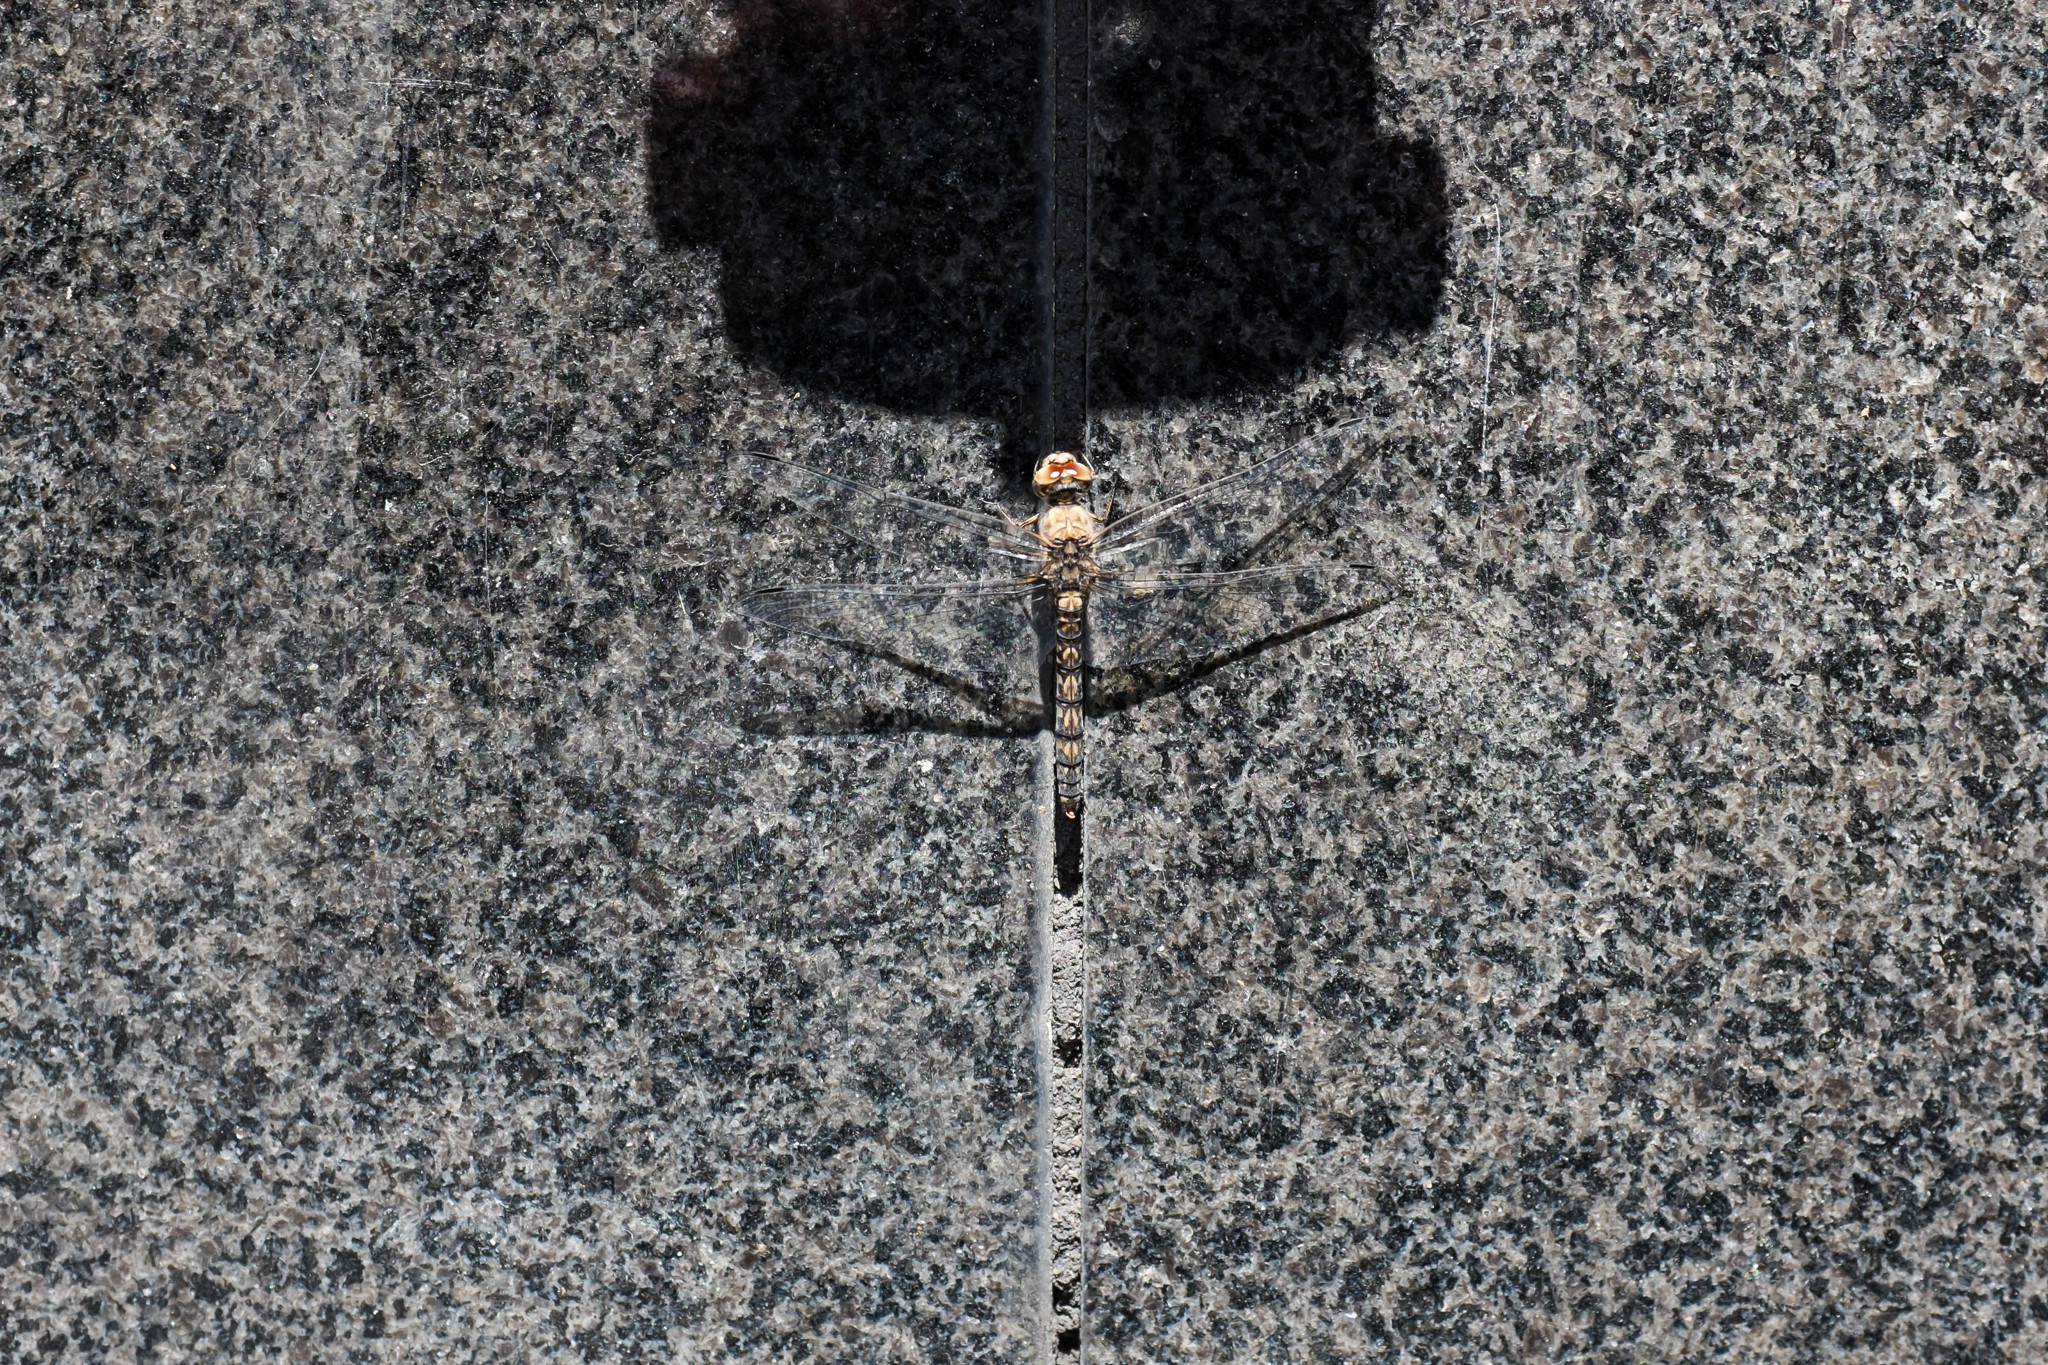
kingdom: Animalia
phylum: Arthropoda
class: Insecta
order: Odonata
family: Libellulidae
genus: Paltothemis
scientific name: Paltothemis lineatipes
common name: Red rock skimmer
